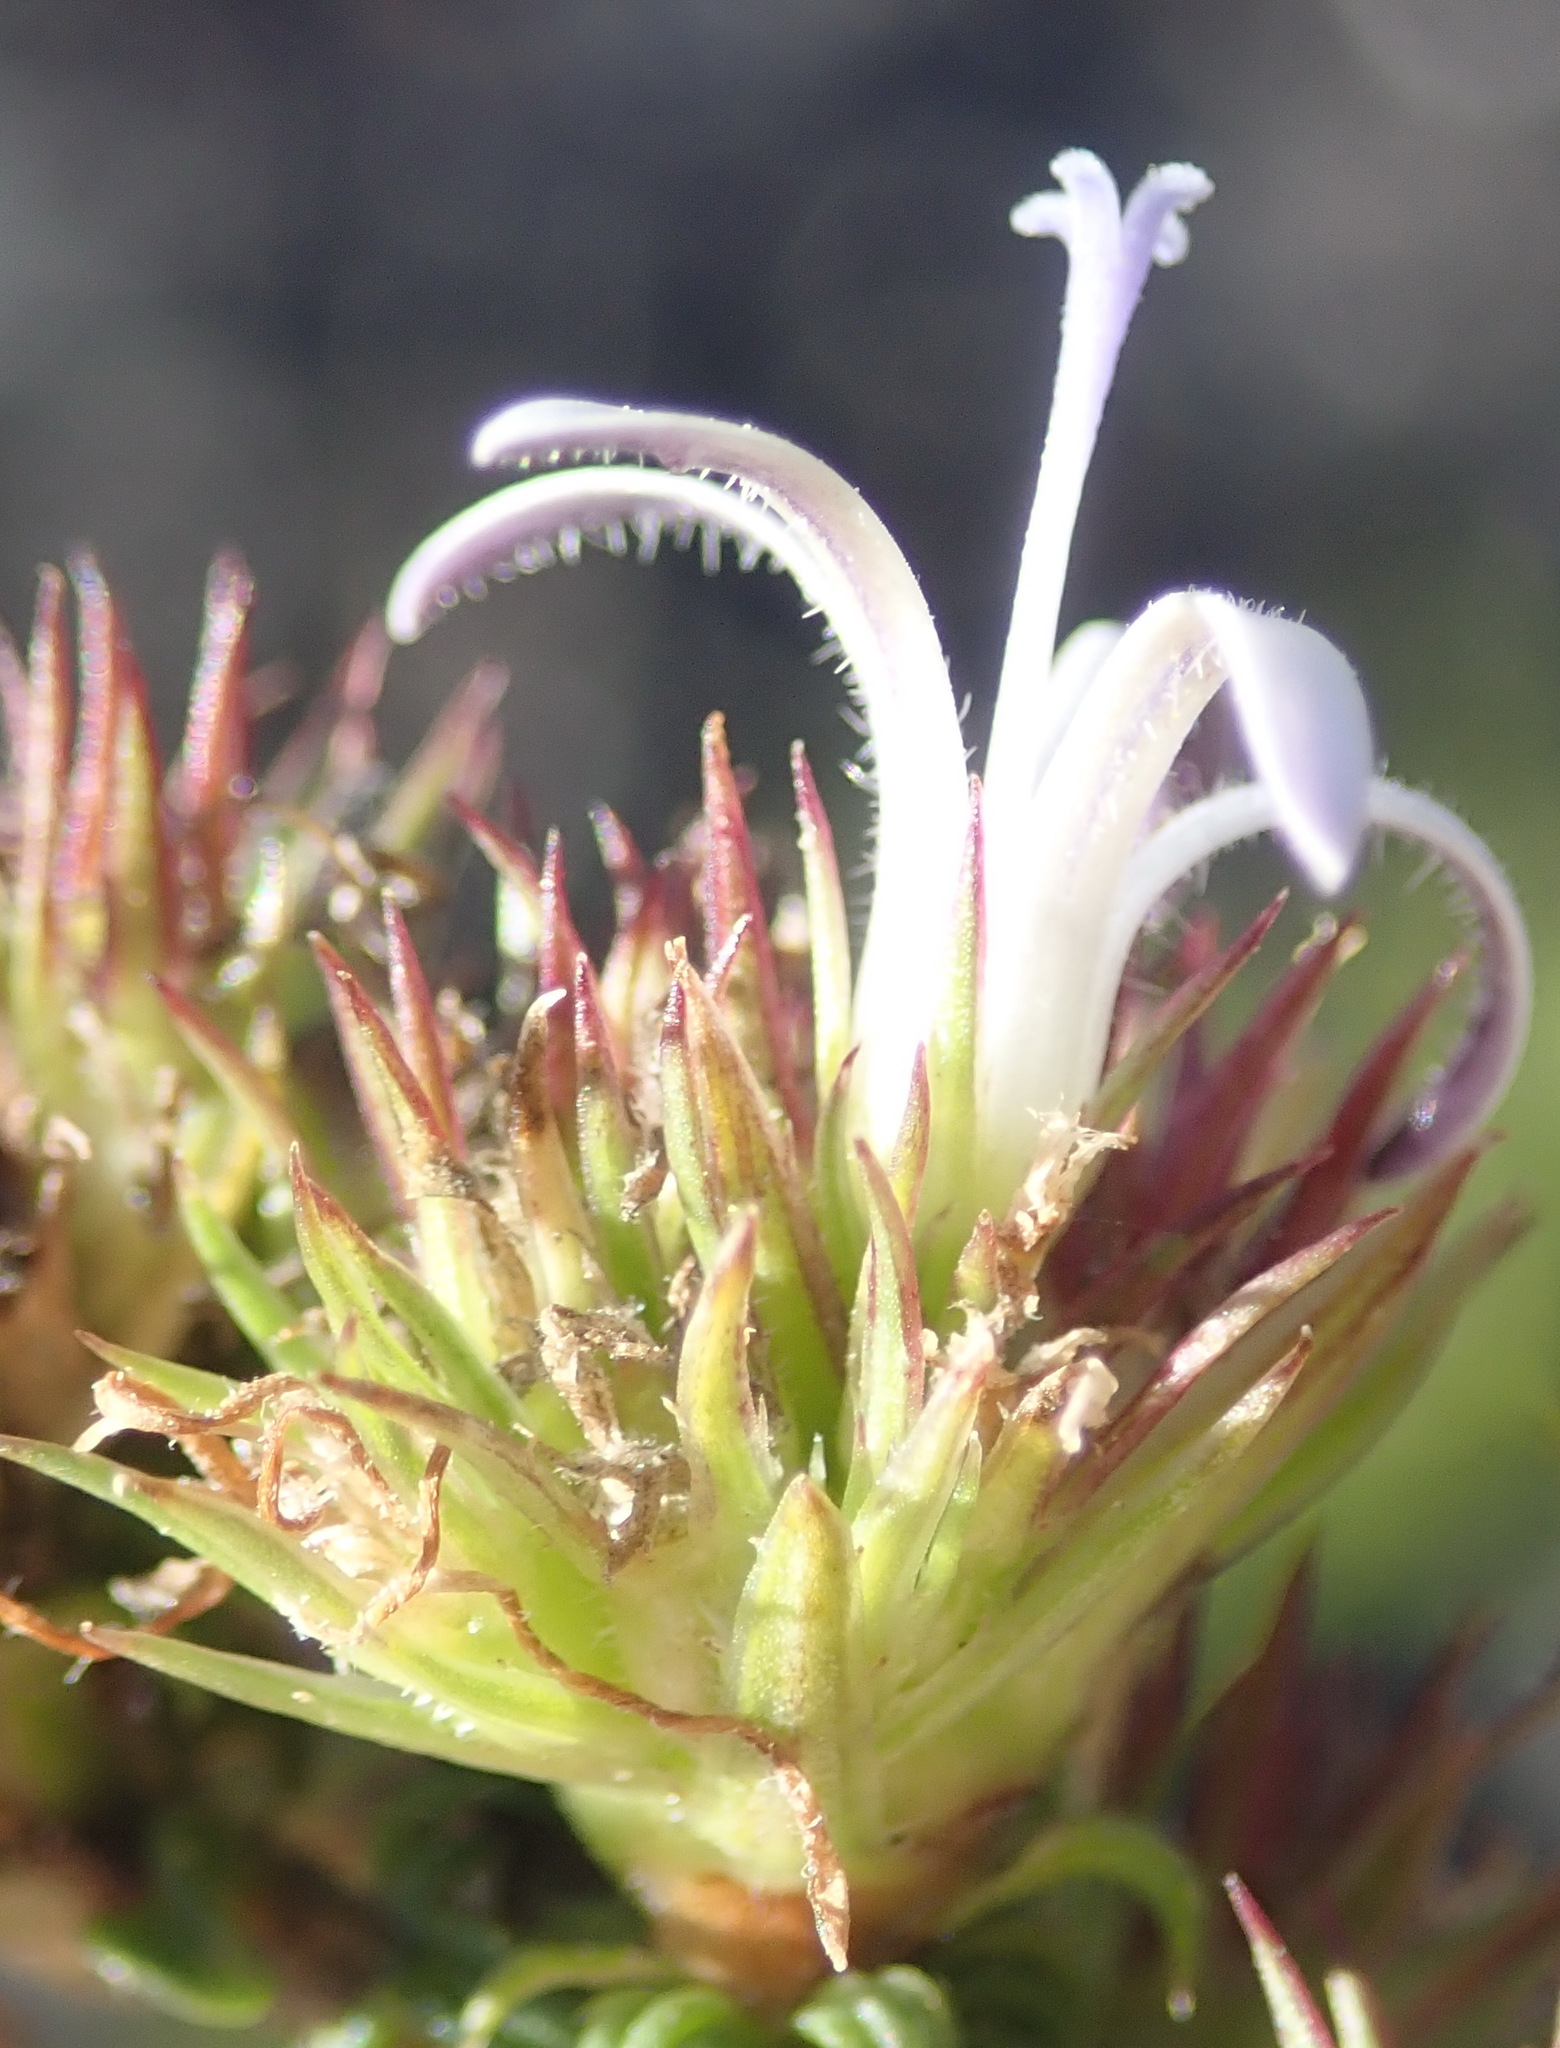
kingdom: Plantae
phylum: Tracheophyta
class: Magnoliopsida
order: Asterales
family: Campanulaceae
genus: Wahlenbergia
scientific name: Wahlenbergia desmantha
